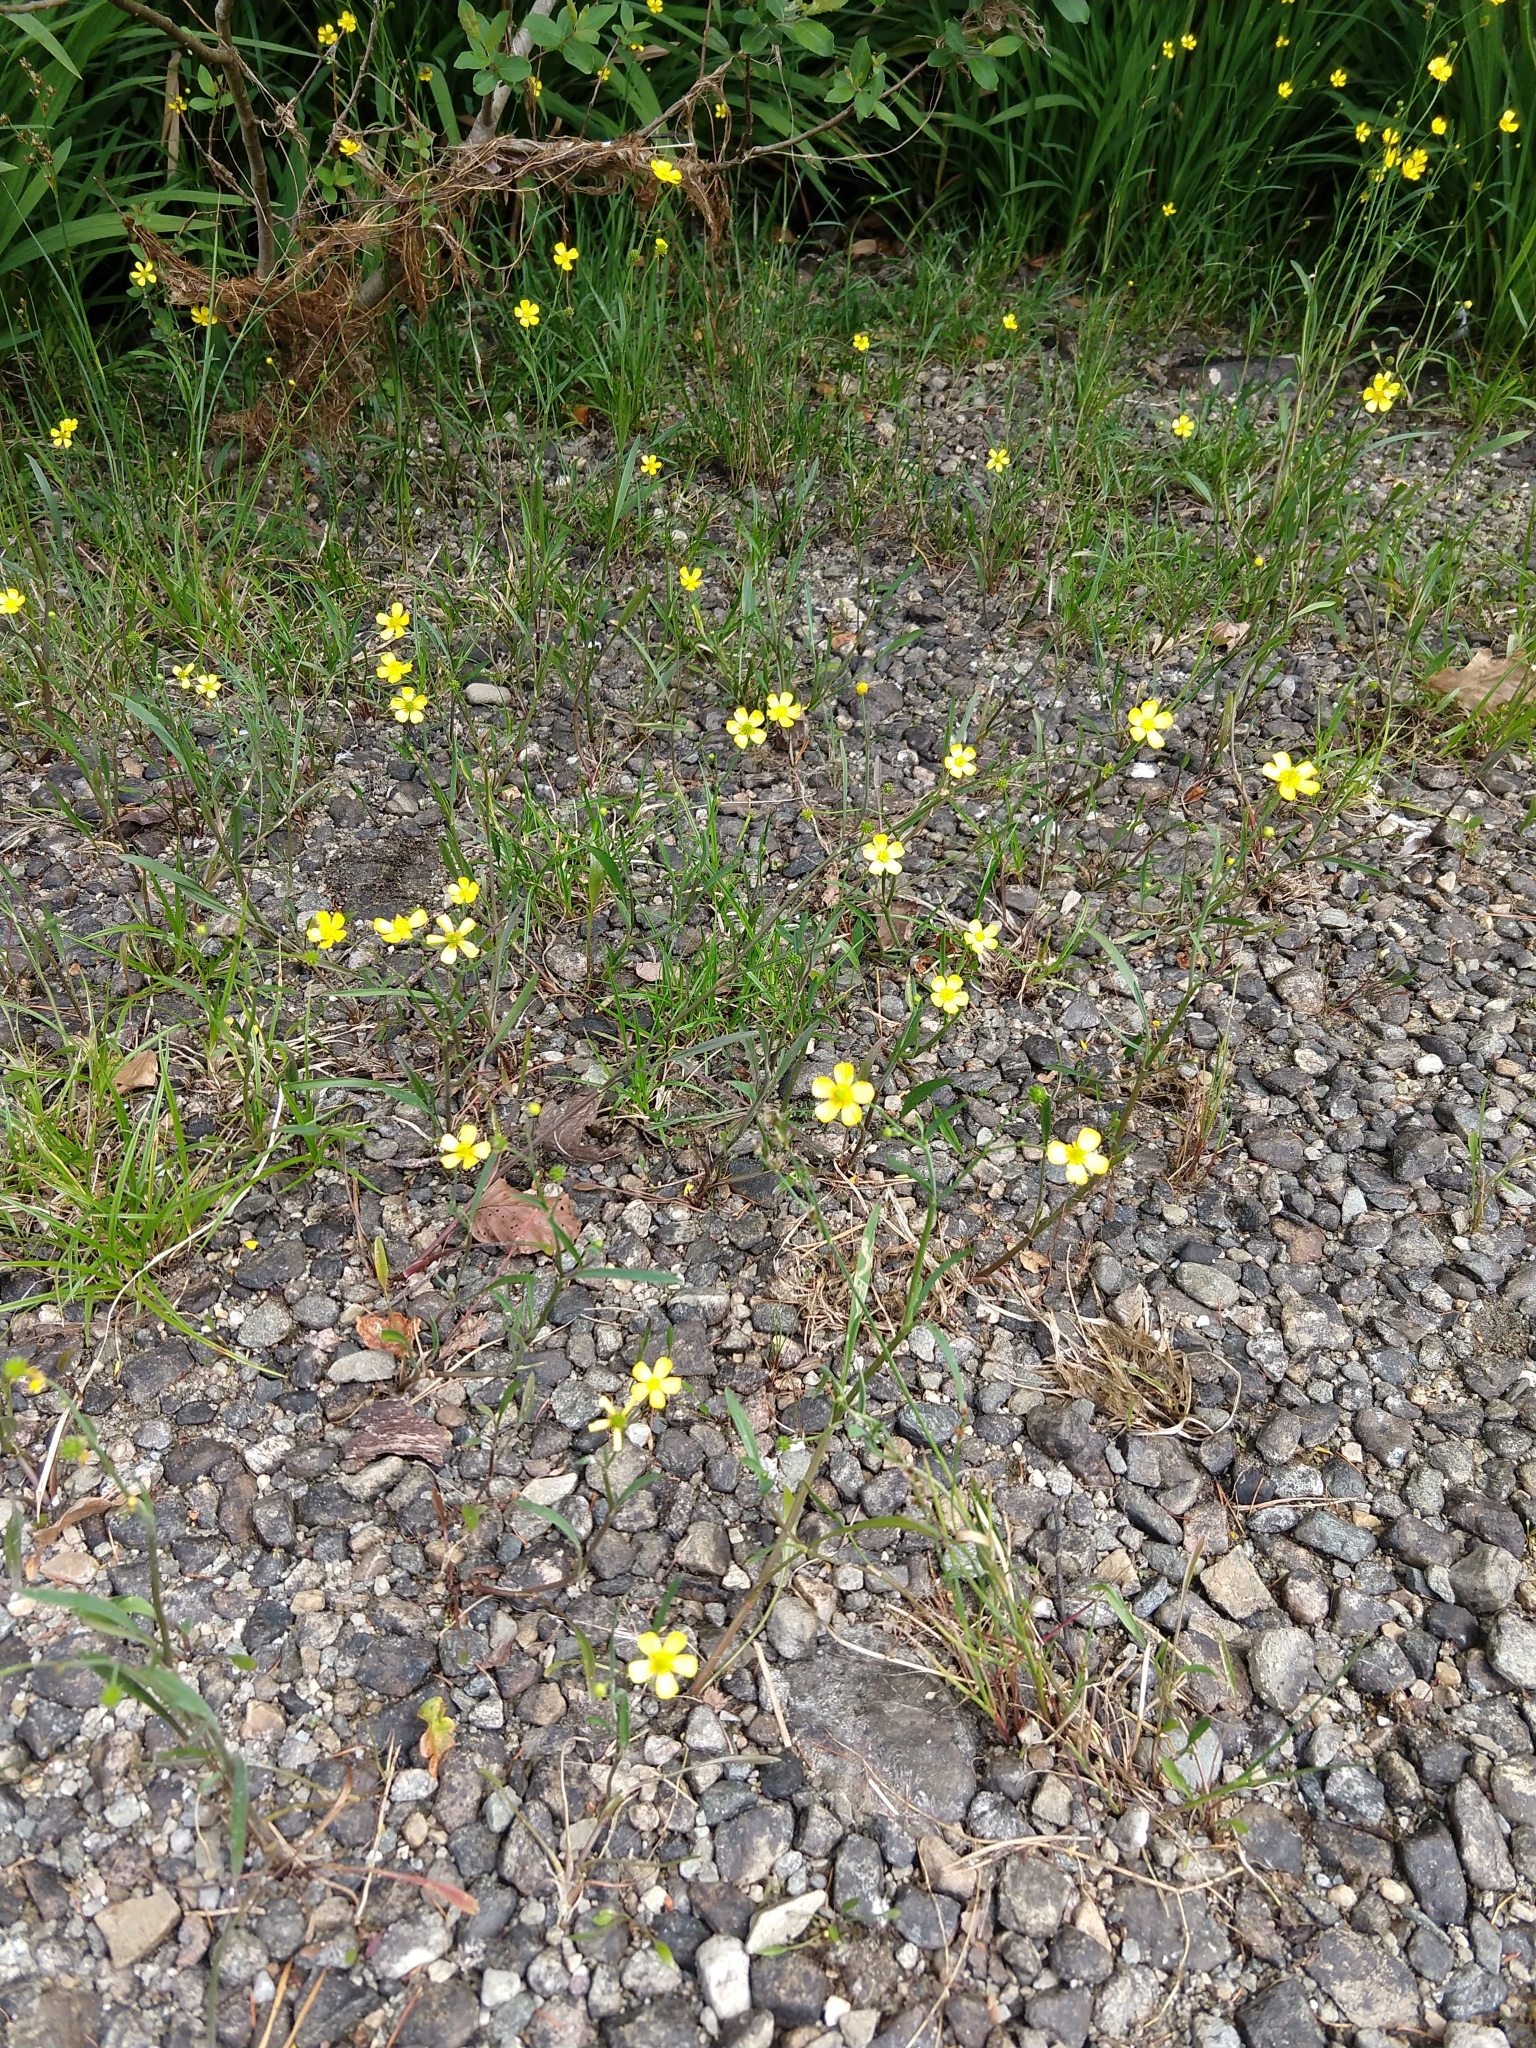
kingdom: Plantae
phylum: Tracheophyta
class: Magnoliopsida
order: Ranunculales
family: Ranunculaceae
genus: Ranunculus
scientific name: Ranunculus flammula
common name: Lesser spearwort
